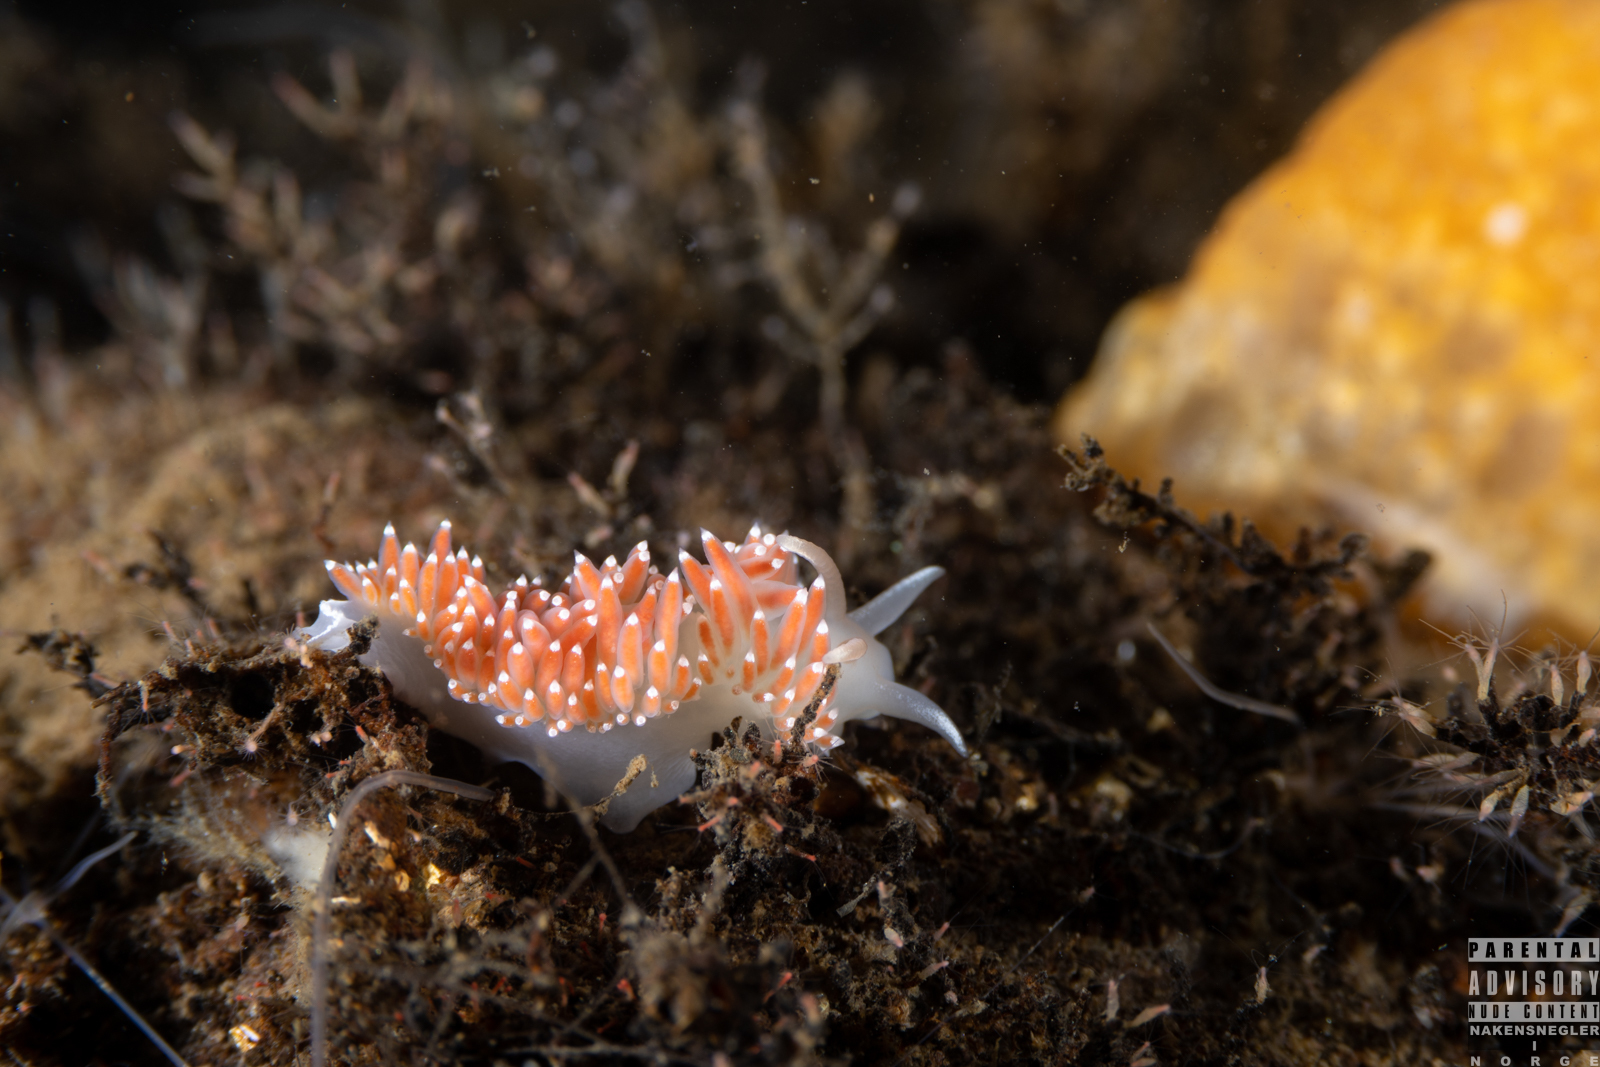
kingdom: Animalia
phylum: Mollusca
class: Gastropoda
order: Nudibranchia
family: Coryphellidae
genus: Coryphella
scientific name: Coryphella verrucosa
